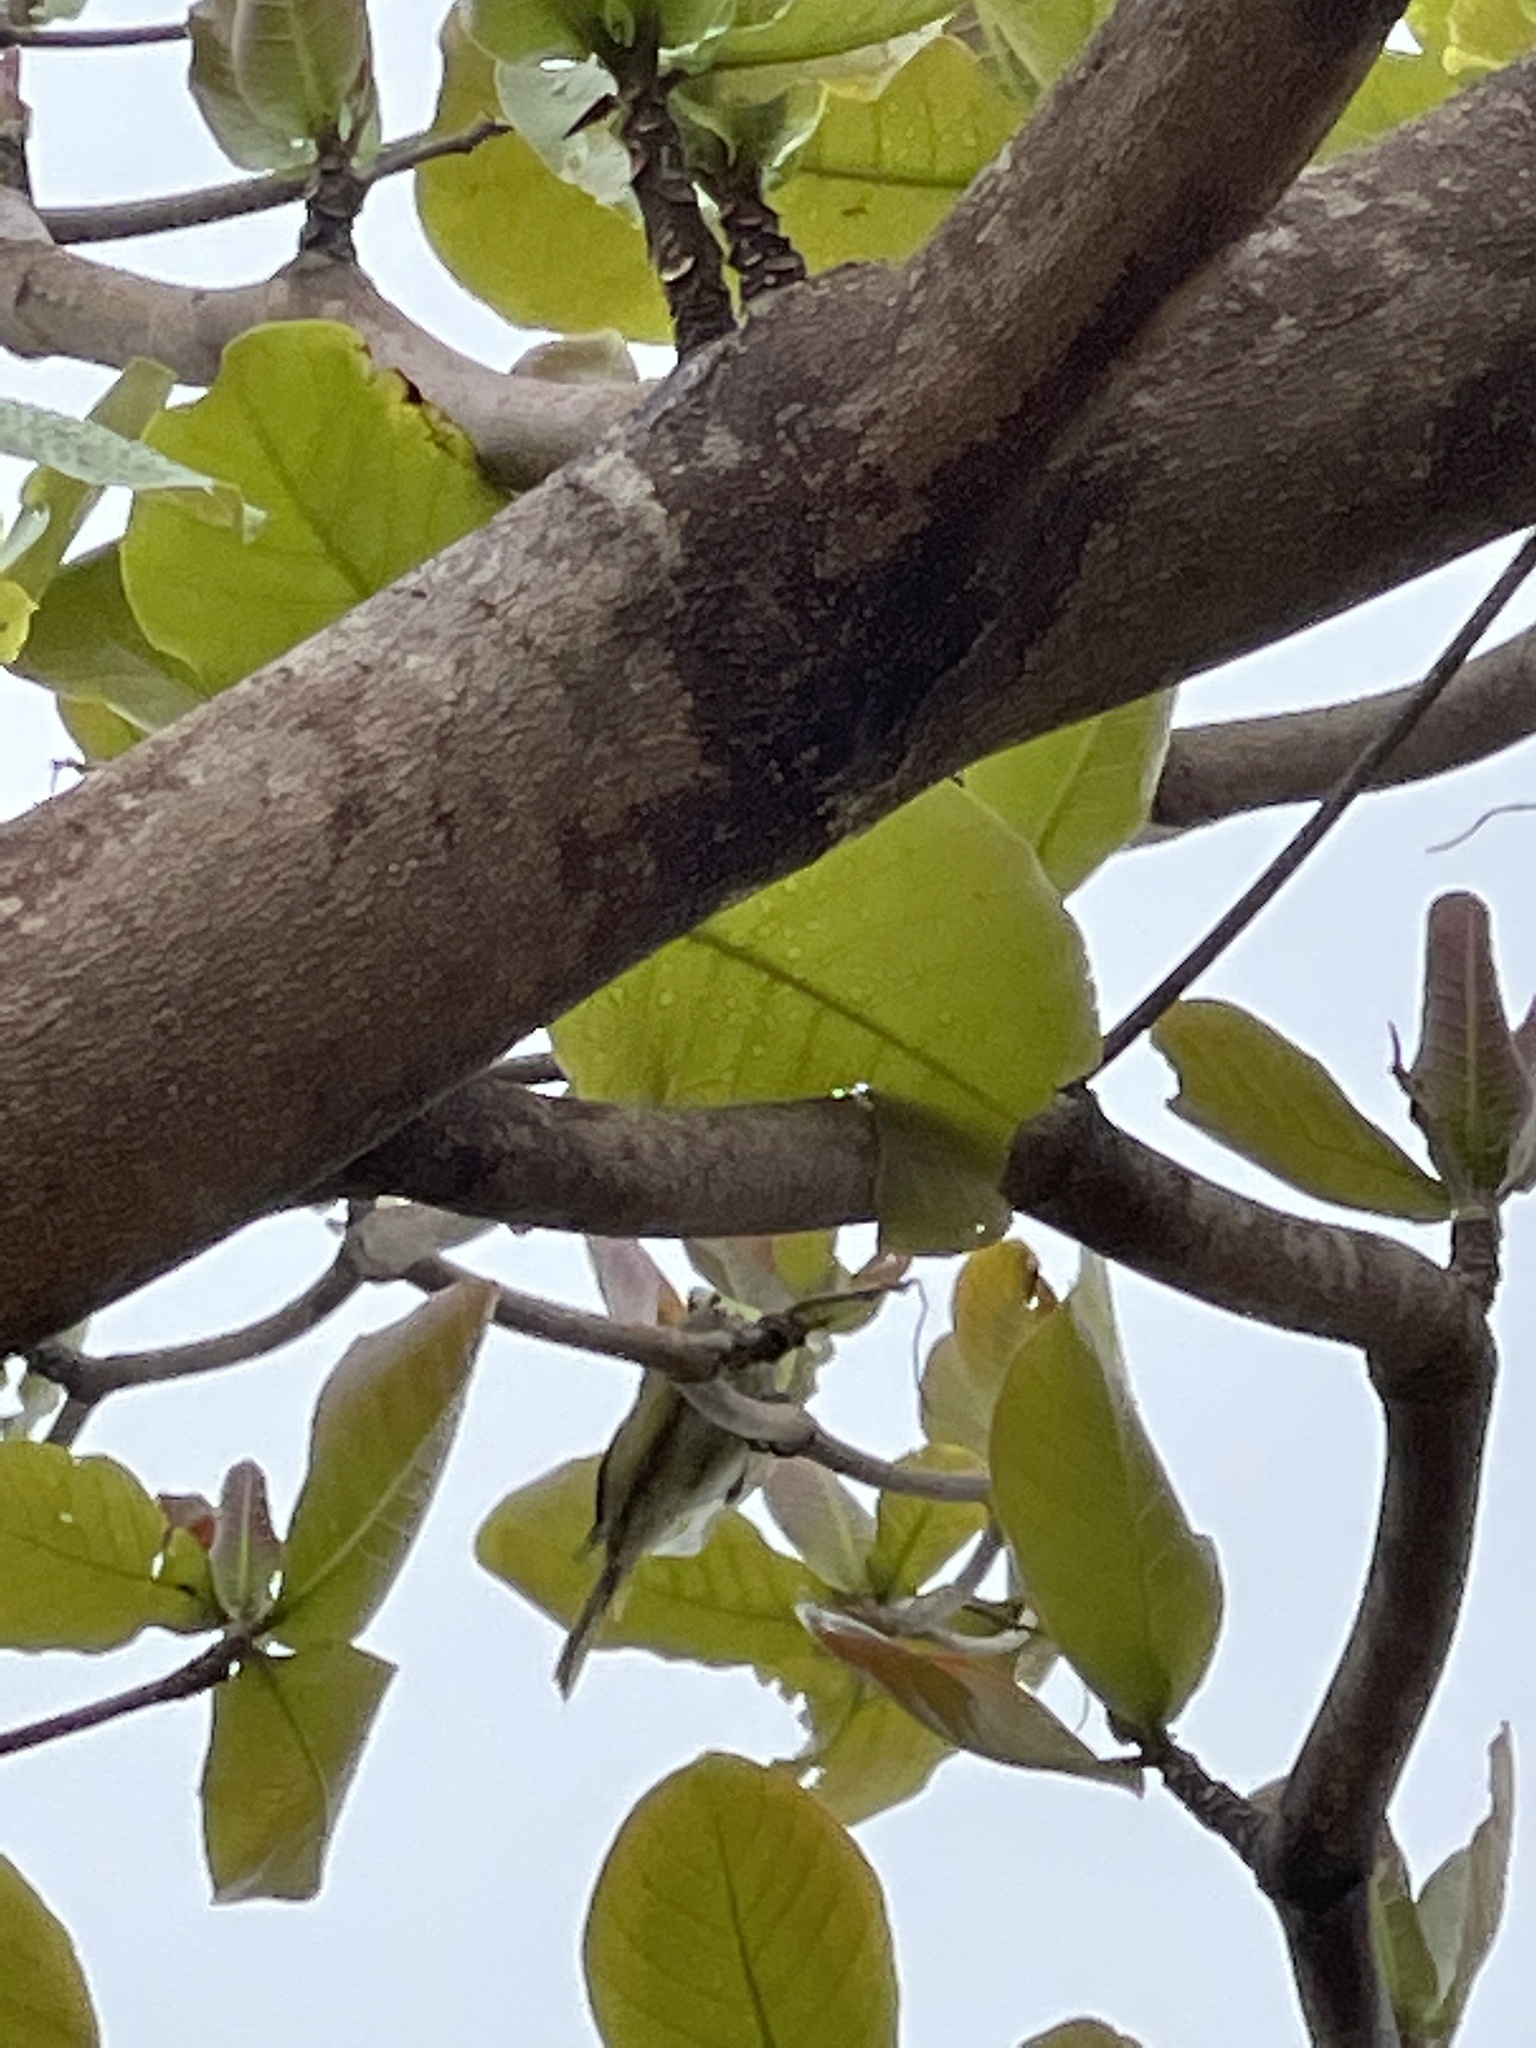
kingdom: Animalia
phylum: Chordata
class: Aves
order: Passeriformes
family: Meliphagidae
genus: Gavicalis
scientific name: Gavicalis versicolor
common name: Varied honeyeater
